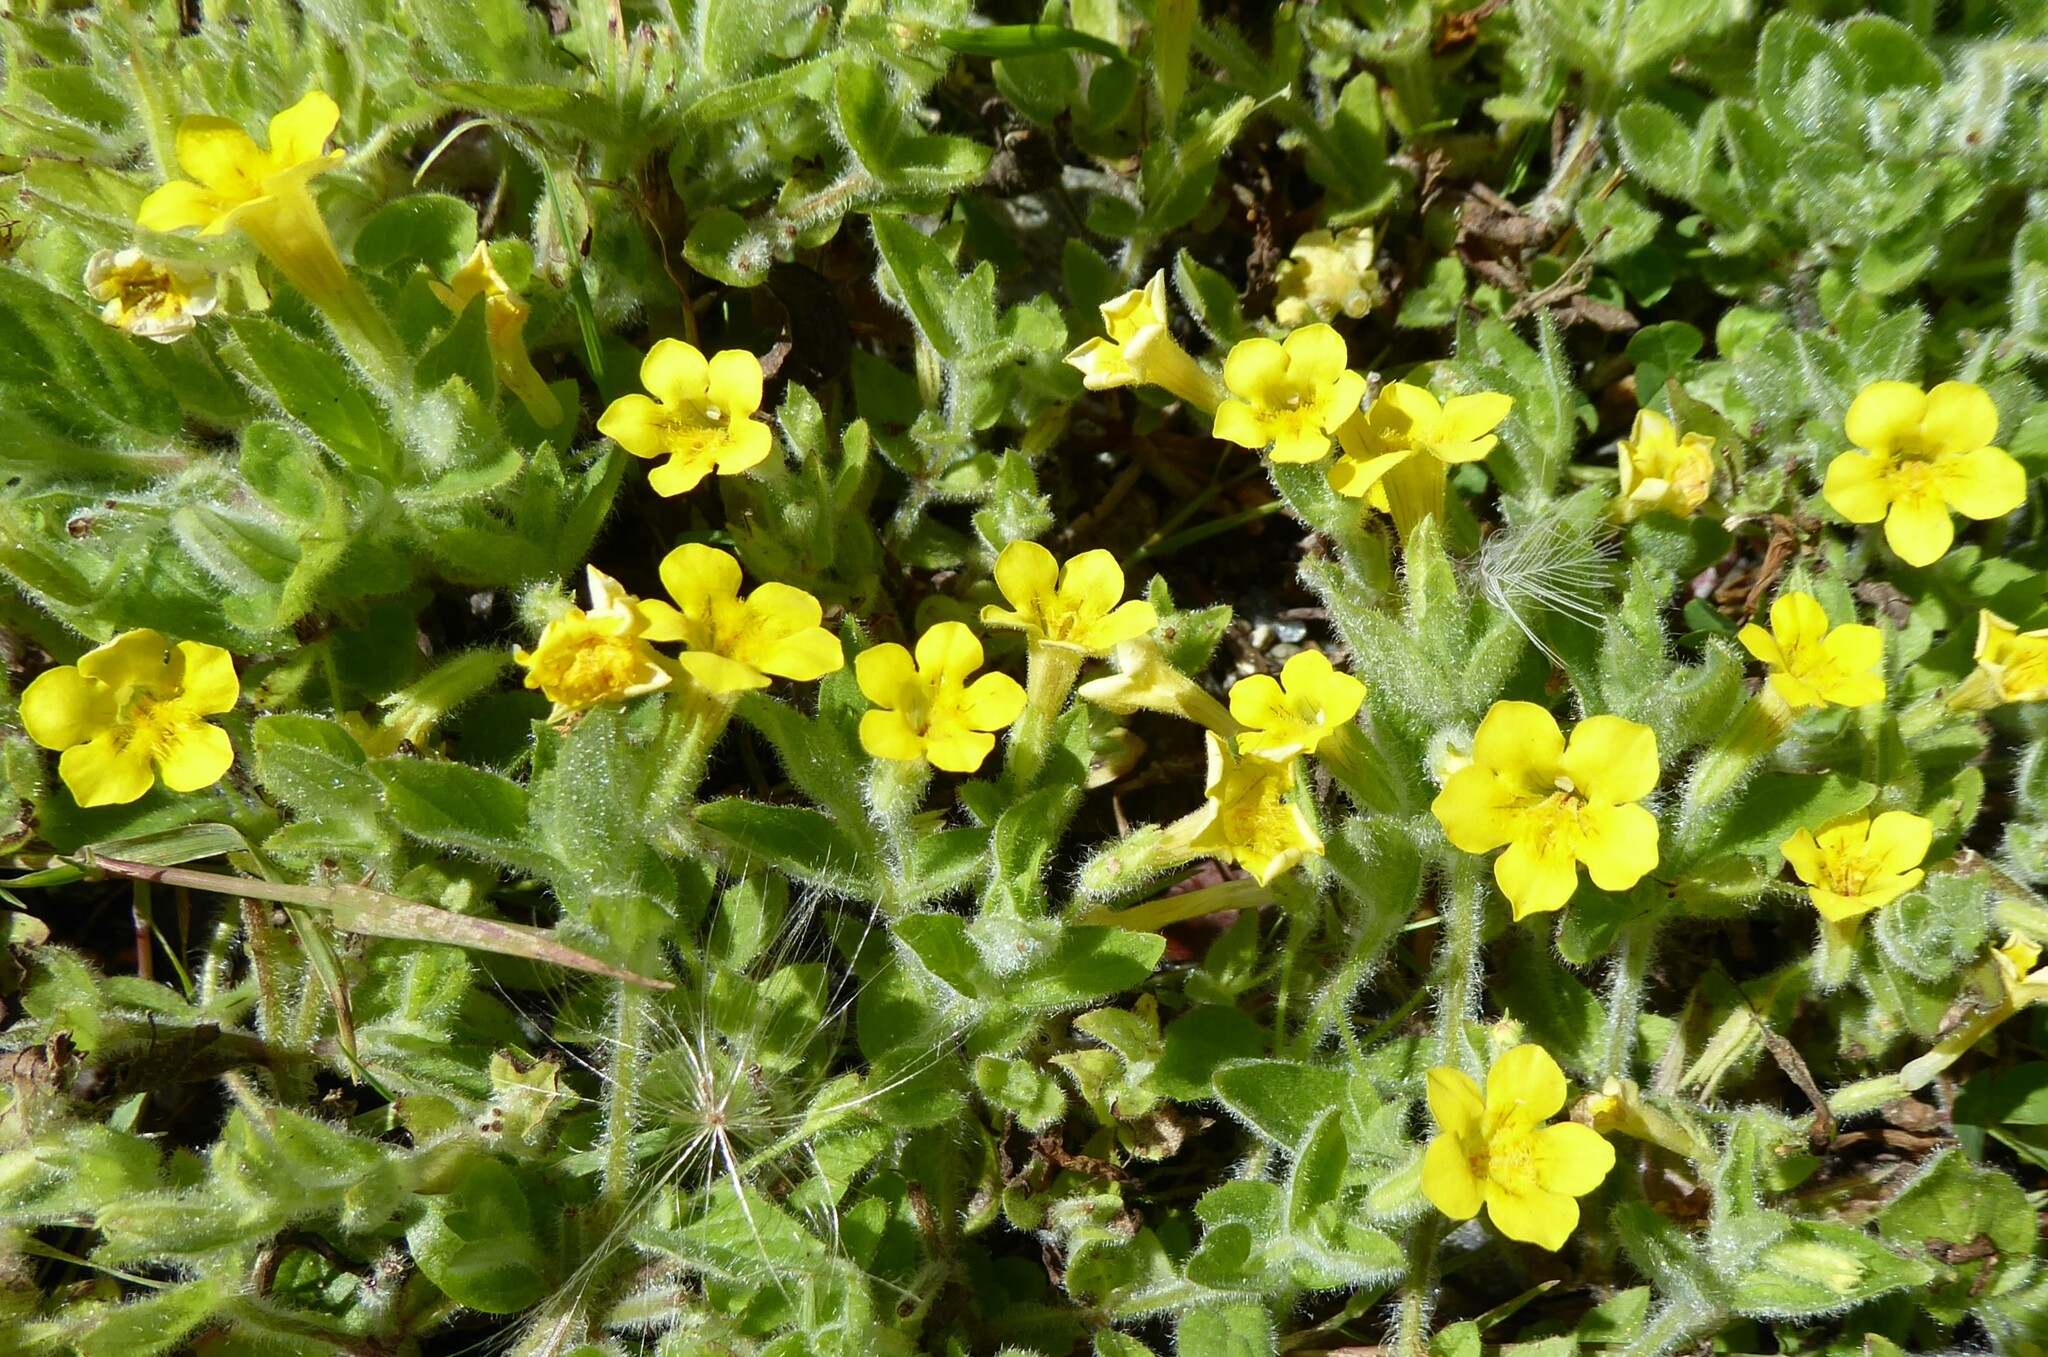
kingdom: Plantae
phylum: Tracheophyta
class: Magnoliopsida
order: Lamiales
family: Phrymaceae
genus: Erythranthe
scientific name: Erythranthe moschata
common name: Muskflower
